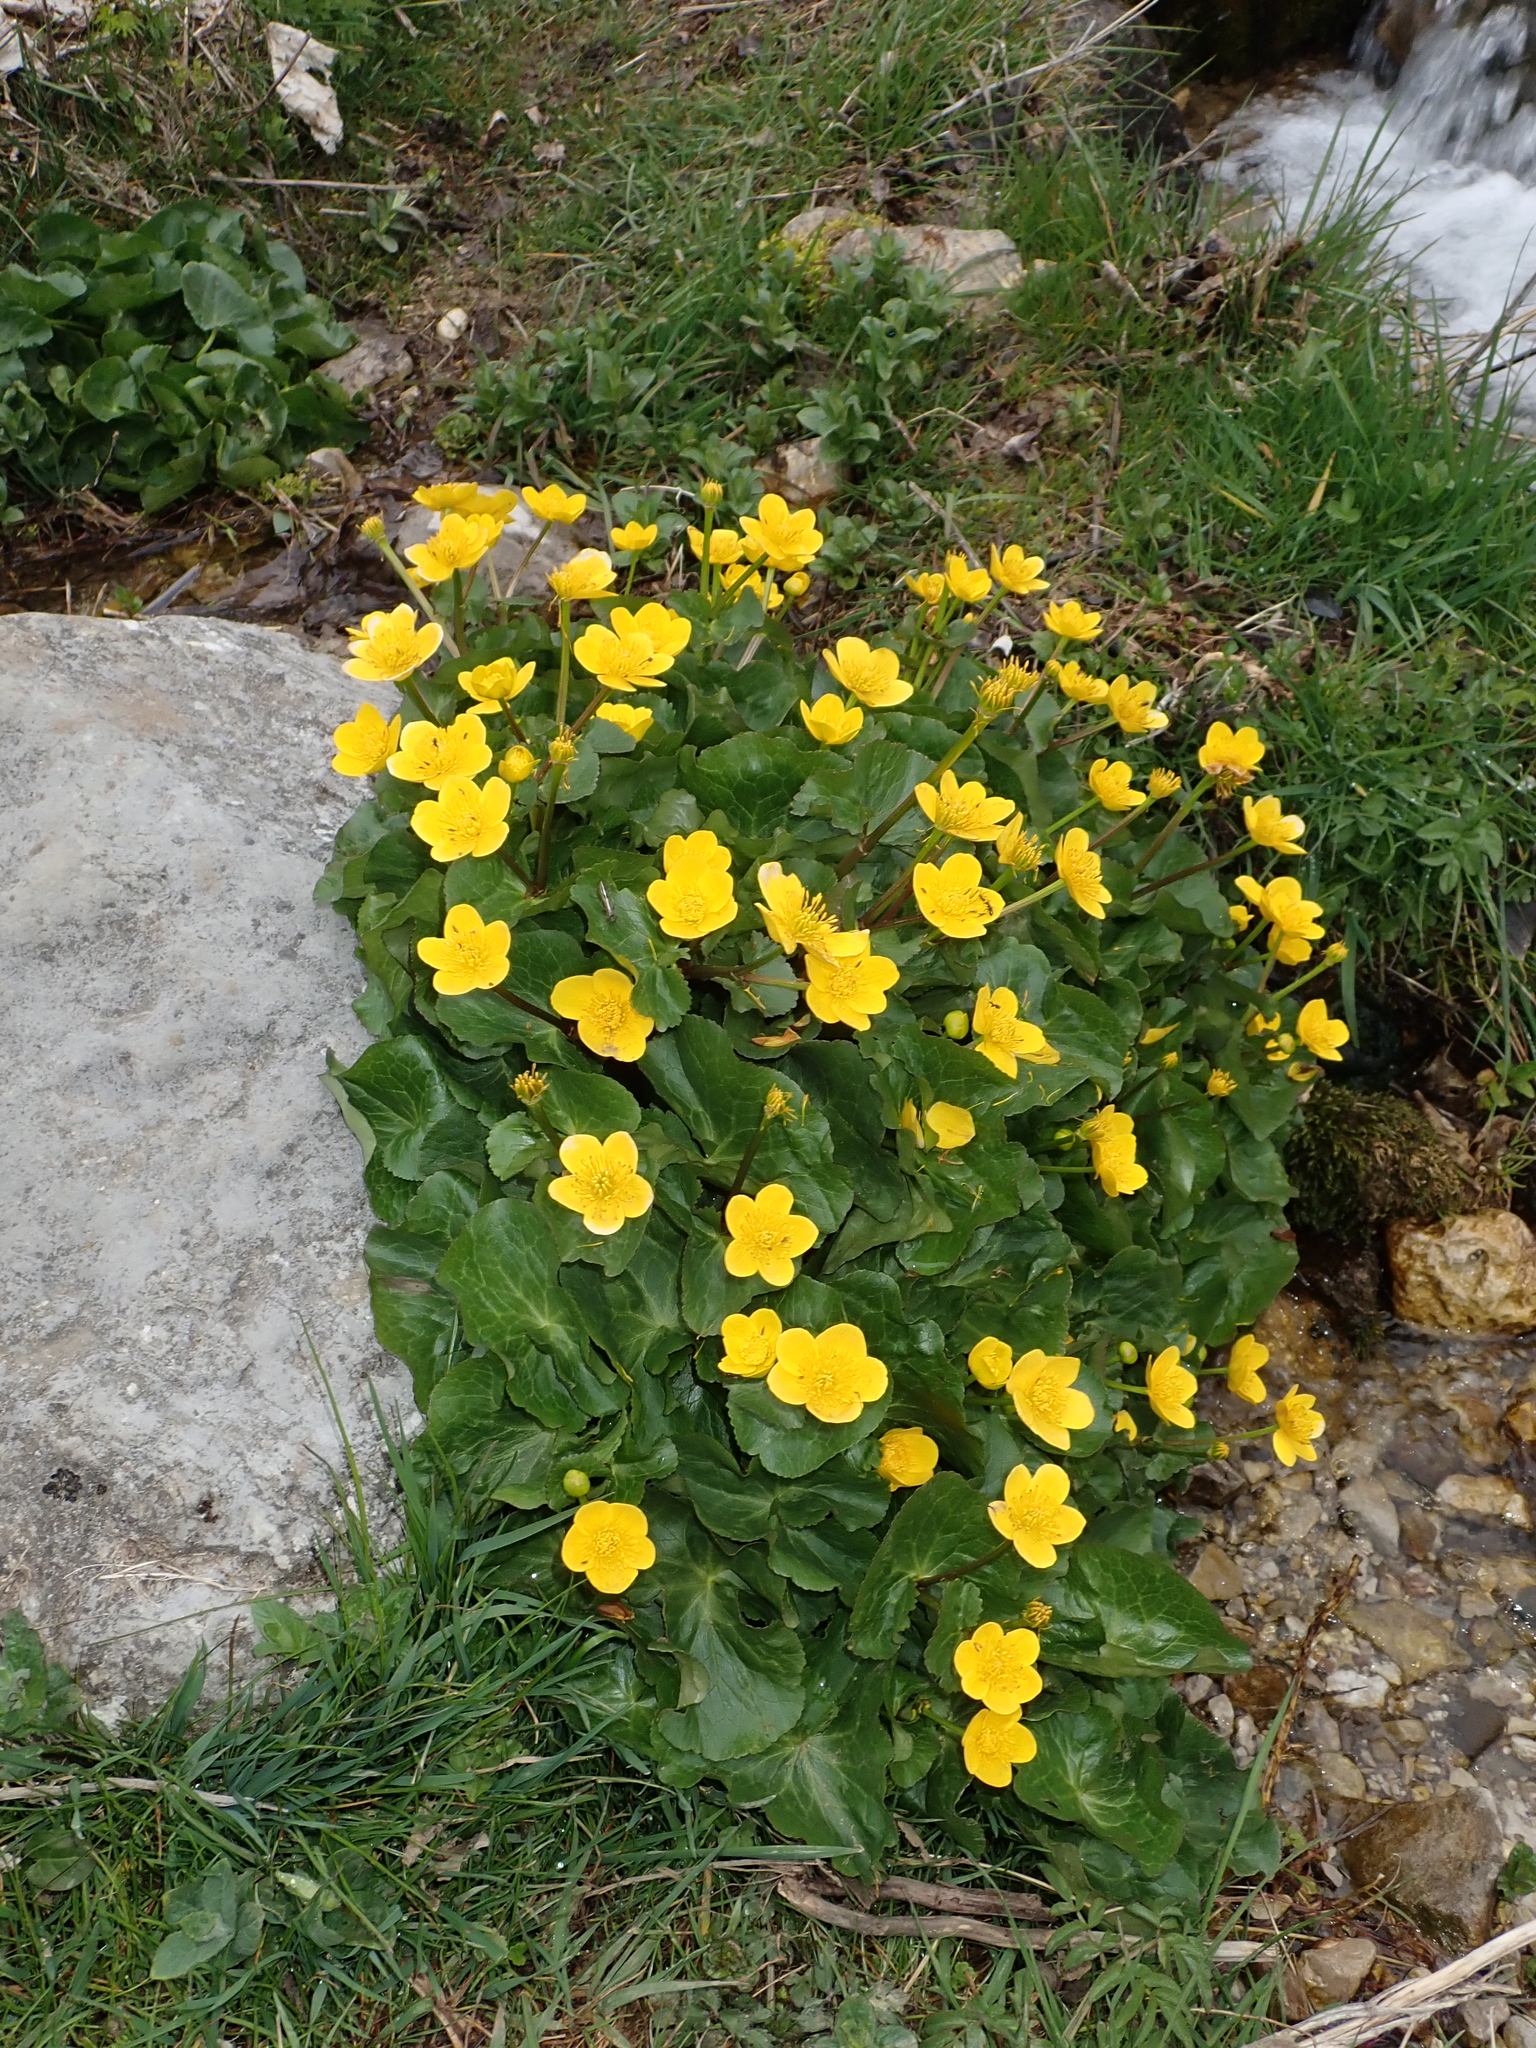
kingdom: Plantae
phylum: Tracheophyta
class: Magnoliopsida
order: Ranunculales
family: Ranunculaceae
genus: Caltha
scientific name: Caltha palustris
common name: Marsh marigold
